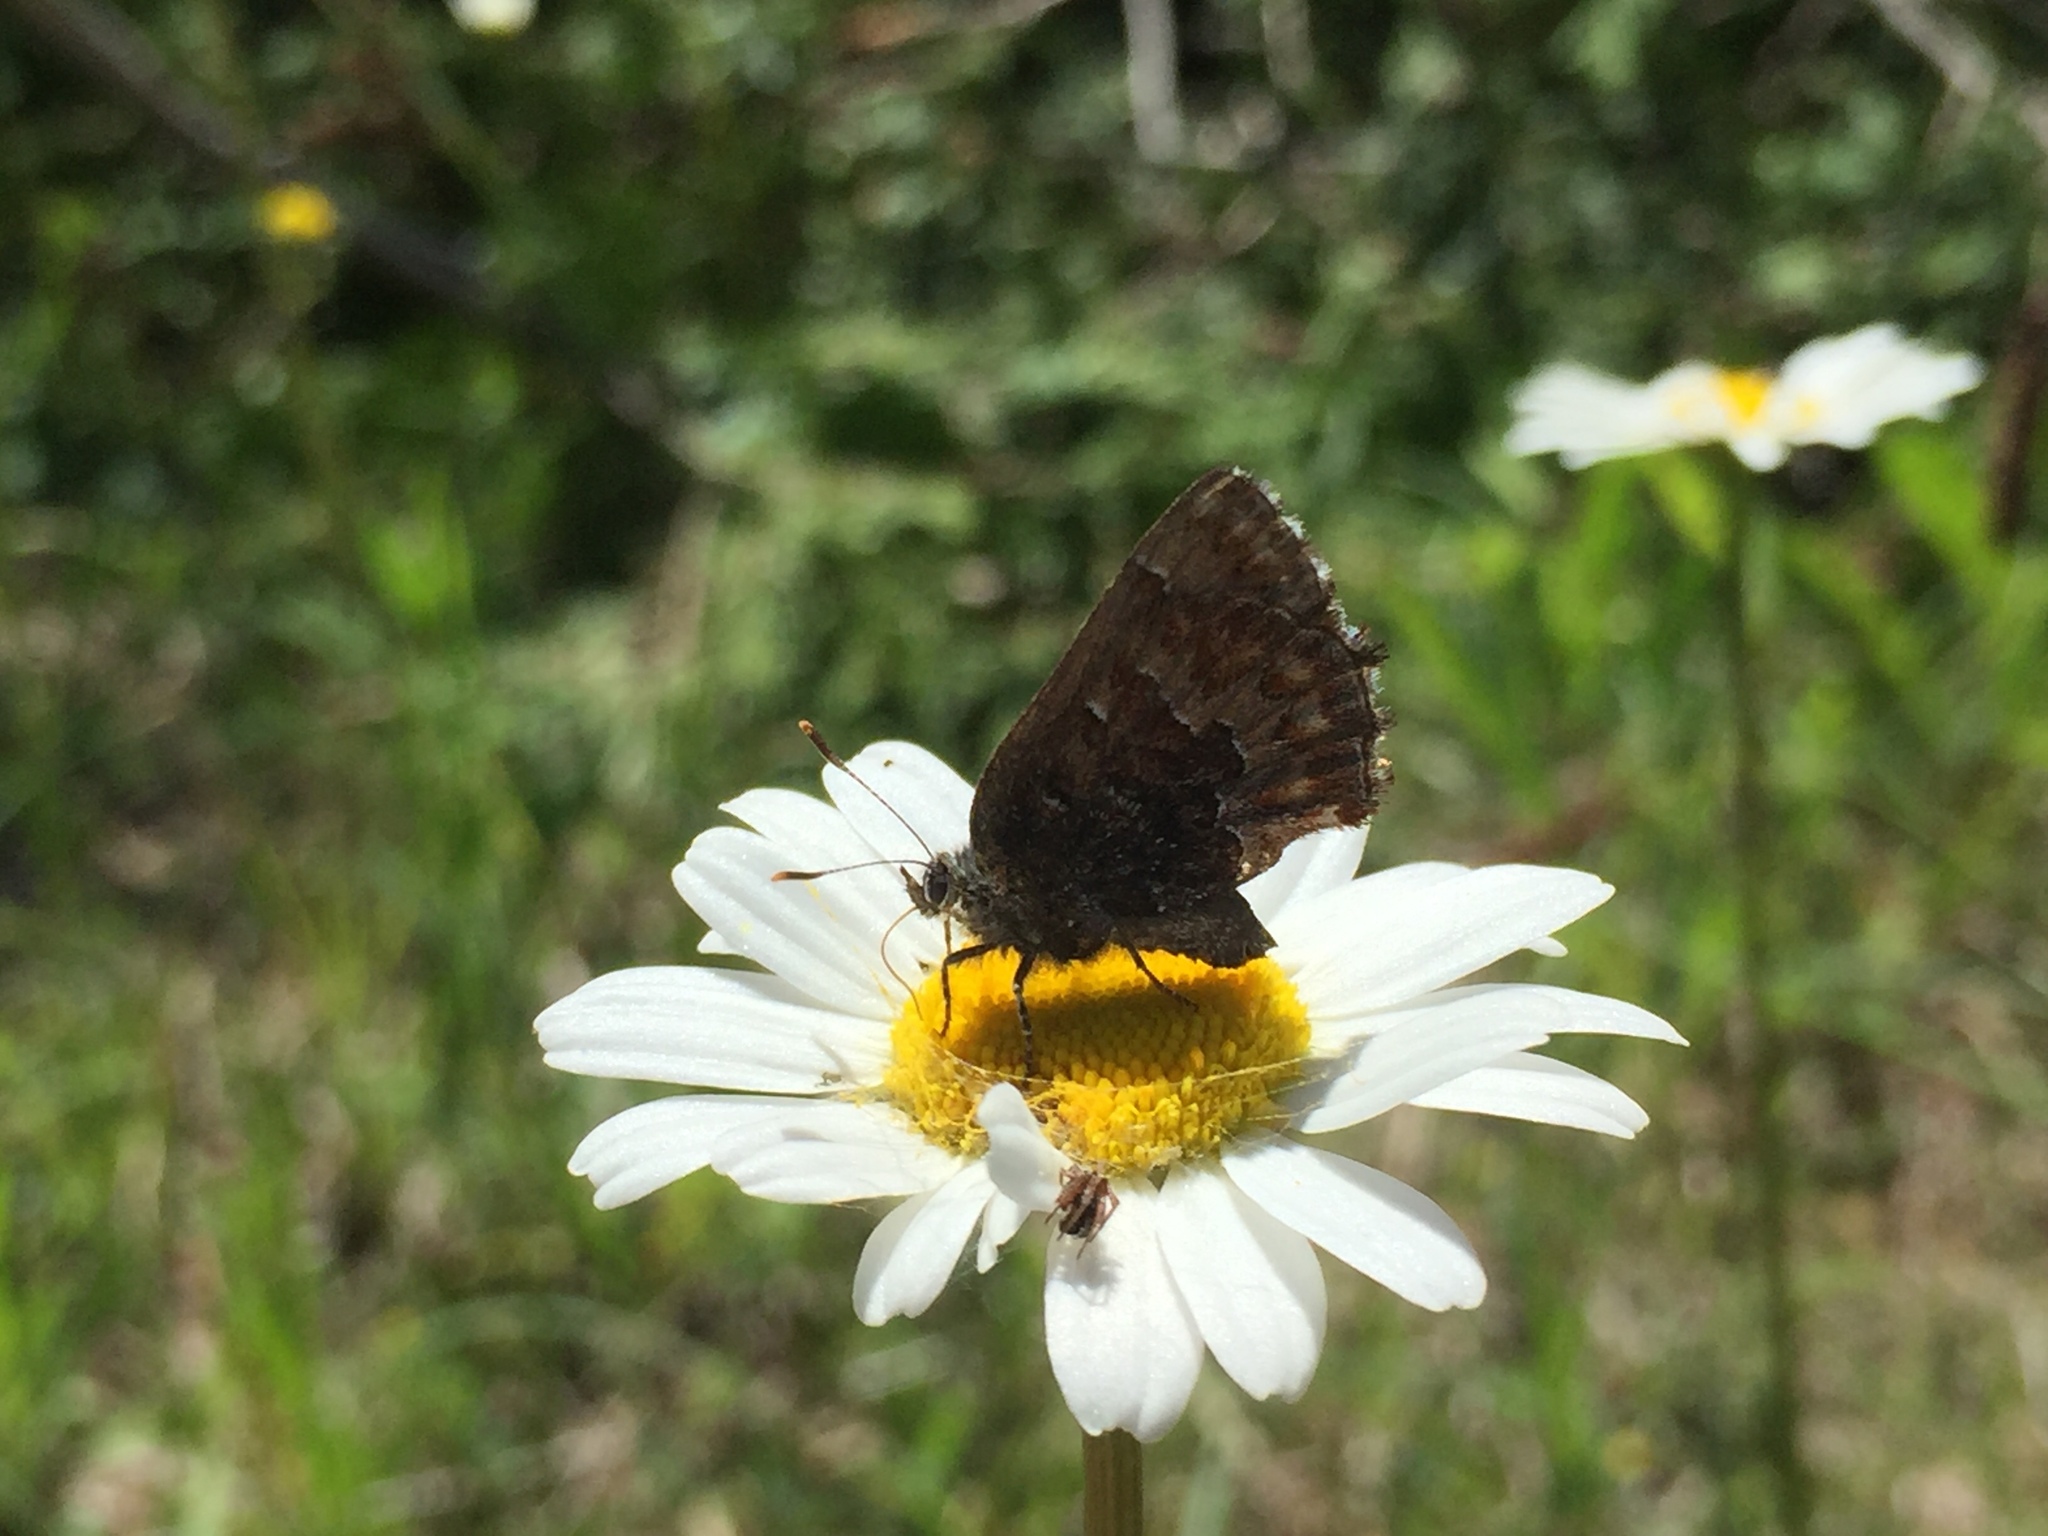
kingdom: Animalia
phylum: Arthropoda
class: Insecta
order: Lepidoptera
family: Lycaenidae
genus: Incisalia
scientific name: Incisalia niphon
